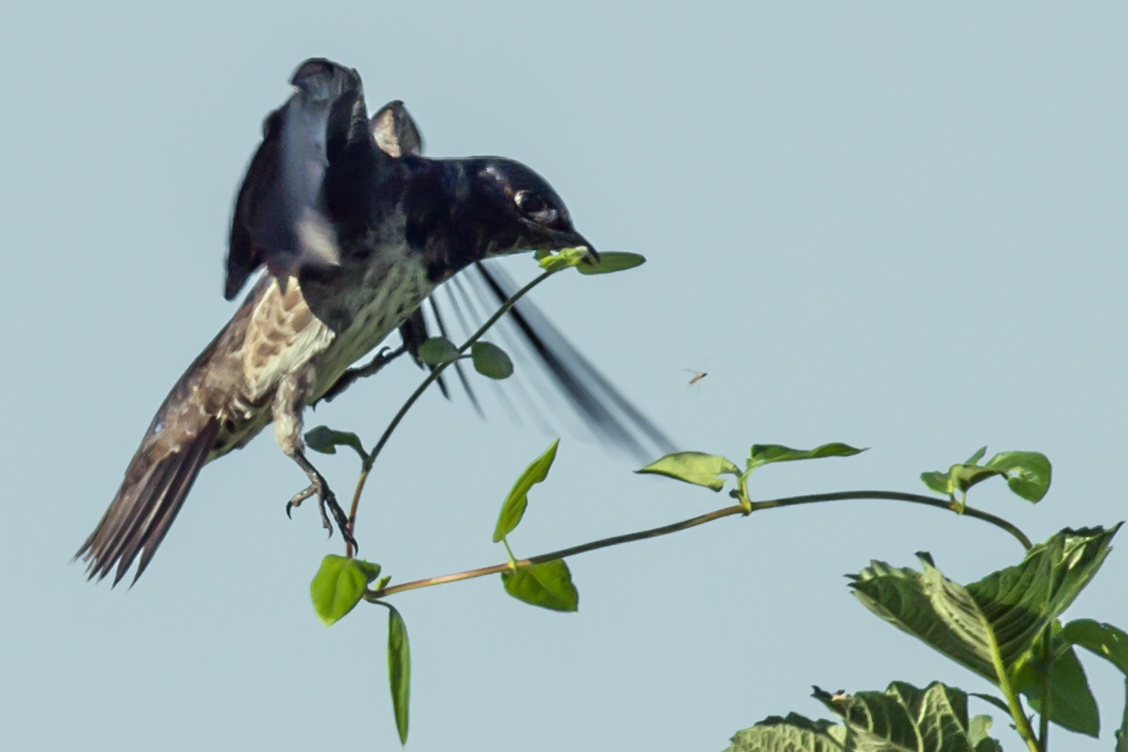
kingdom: Animalia
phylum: Chordata
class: Aves
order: Passeriformes
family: Hirundinidae
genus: Progne
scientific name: Progne subis
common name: Purple martin
